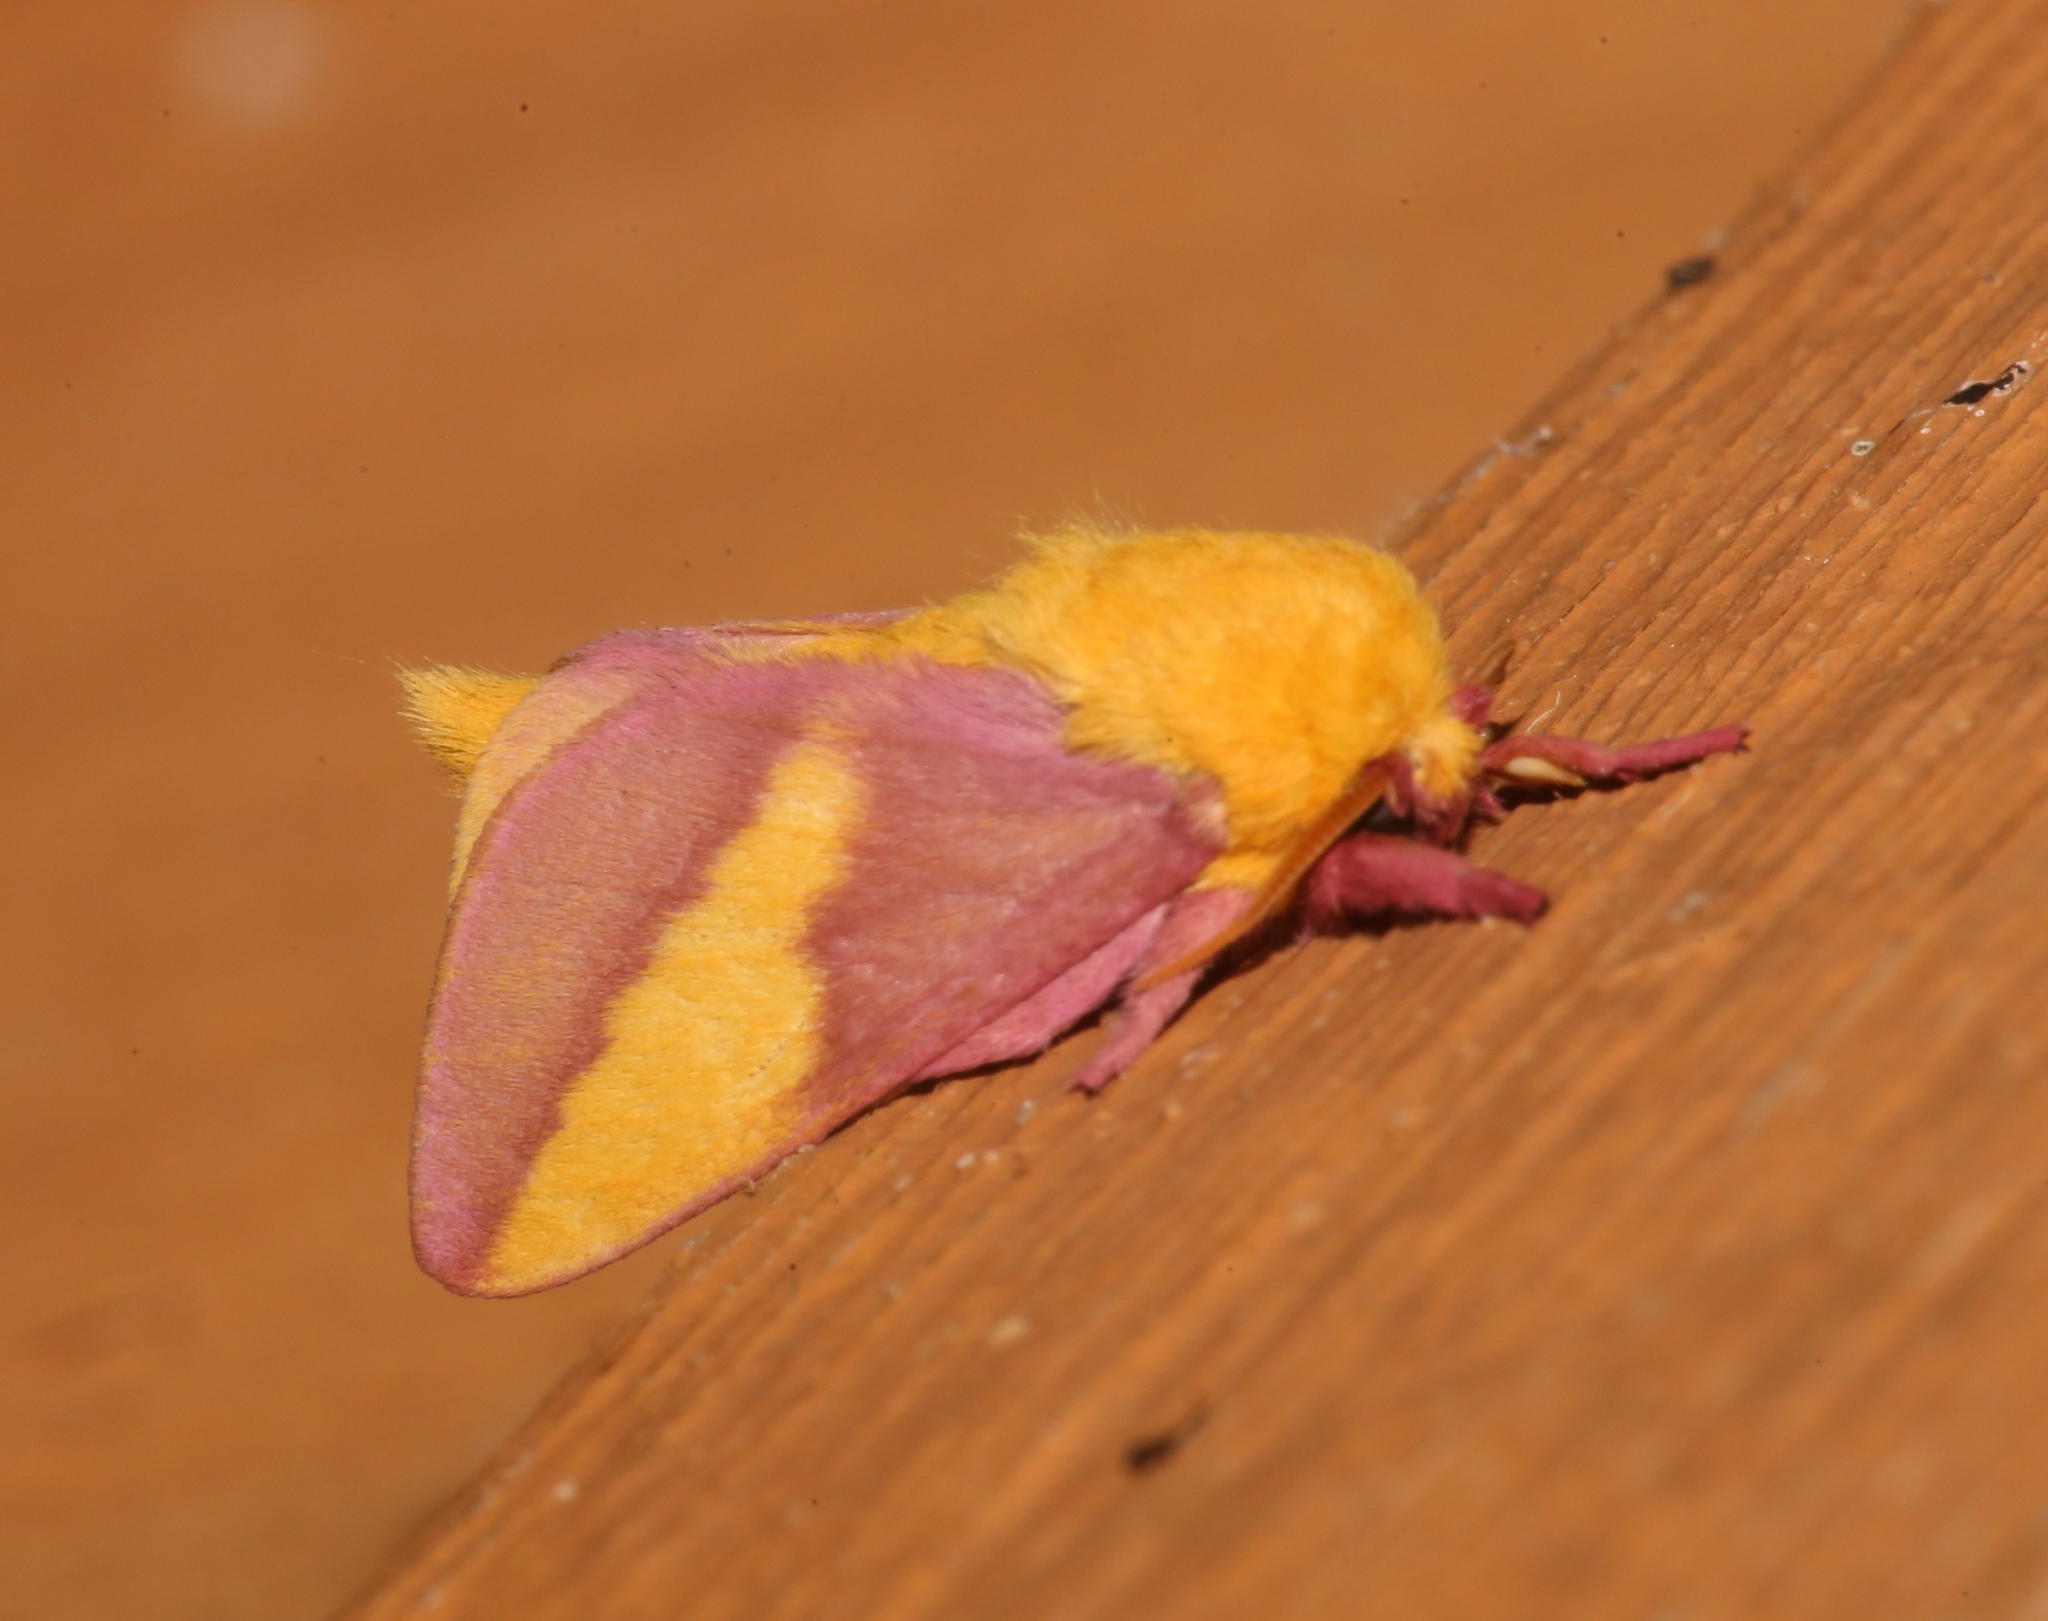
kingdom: Animalia
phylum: Arthropoda
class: Insecta
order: Lepidoptera
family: Saturniidae
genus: Dryocampa
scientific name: Dryocampa rubicunda
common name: Rosy maple moth
